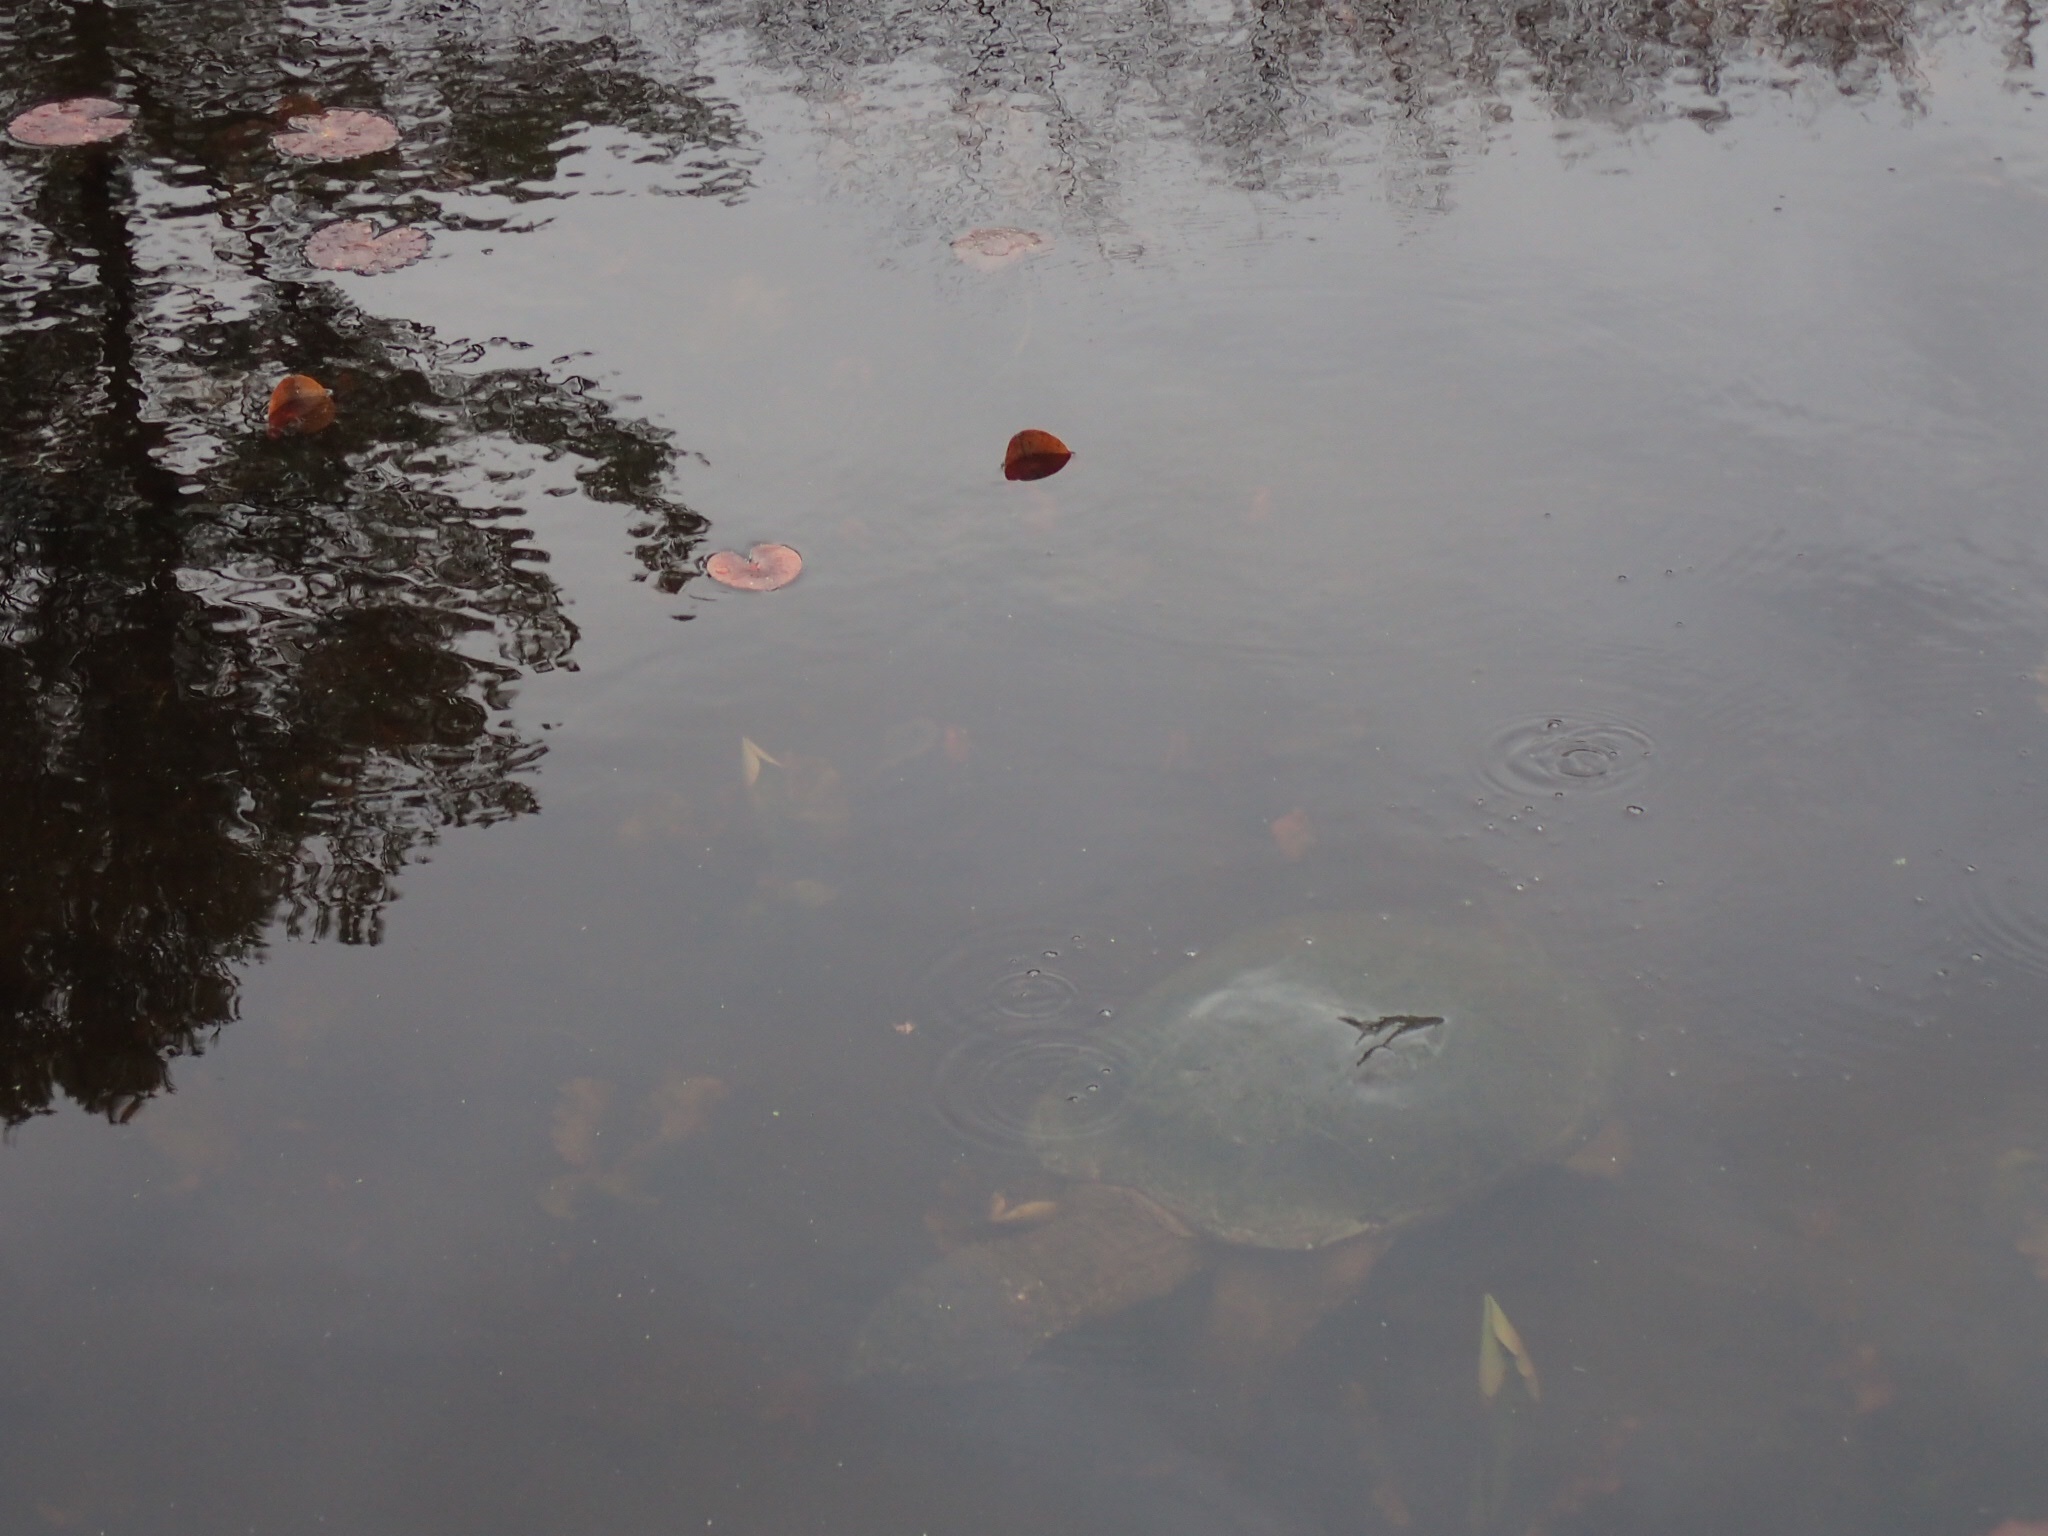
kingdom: Animalia
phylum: Chordata
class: Testudines
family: Chelydridae
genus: Chelydra
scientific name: Chelydra serpentina
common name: Common snapping turtle
